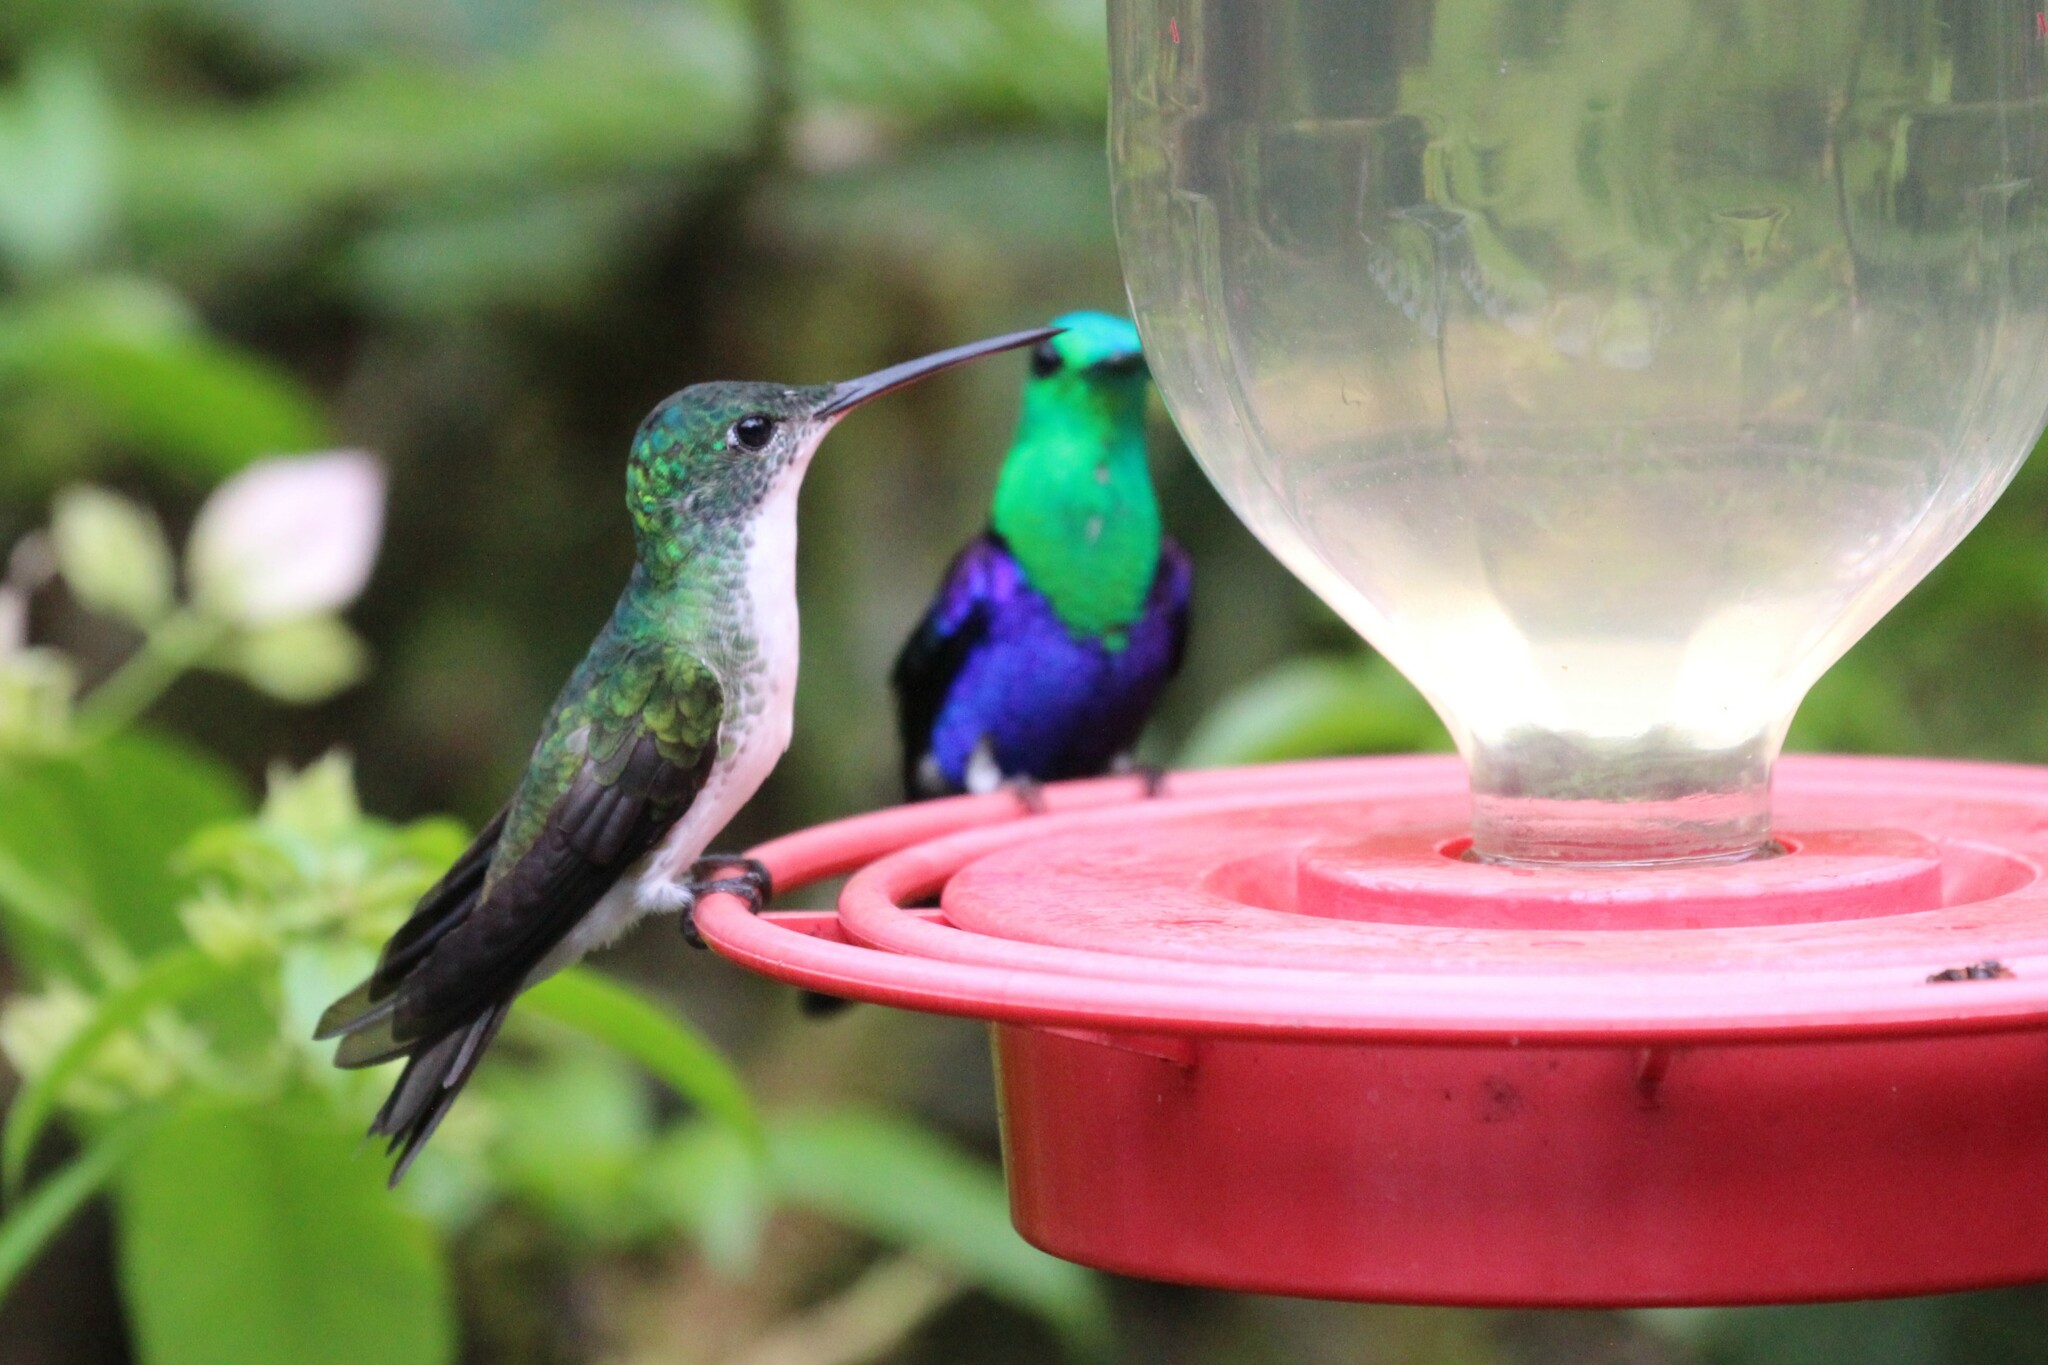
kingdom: Animalia
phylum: Chordata
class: Aves
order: Apodiformes
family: Trochilidae
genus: Uranomitra
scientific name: Uranomitra franciae
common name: Andean emerald
